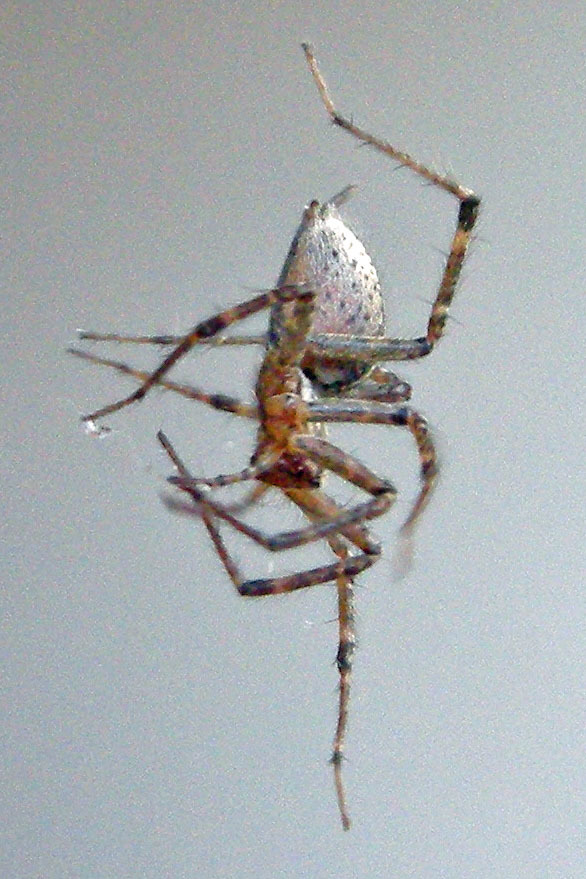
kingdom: Animalia
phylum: Arthropoda
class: Arachnida
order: Araneae
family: Agelenidae
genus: Agelenopsis
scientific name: Agelenopsis
